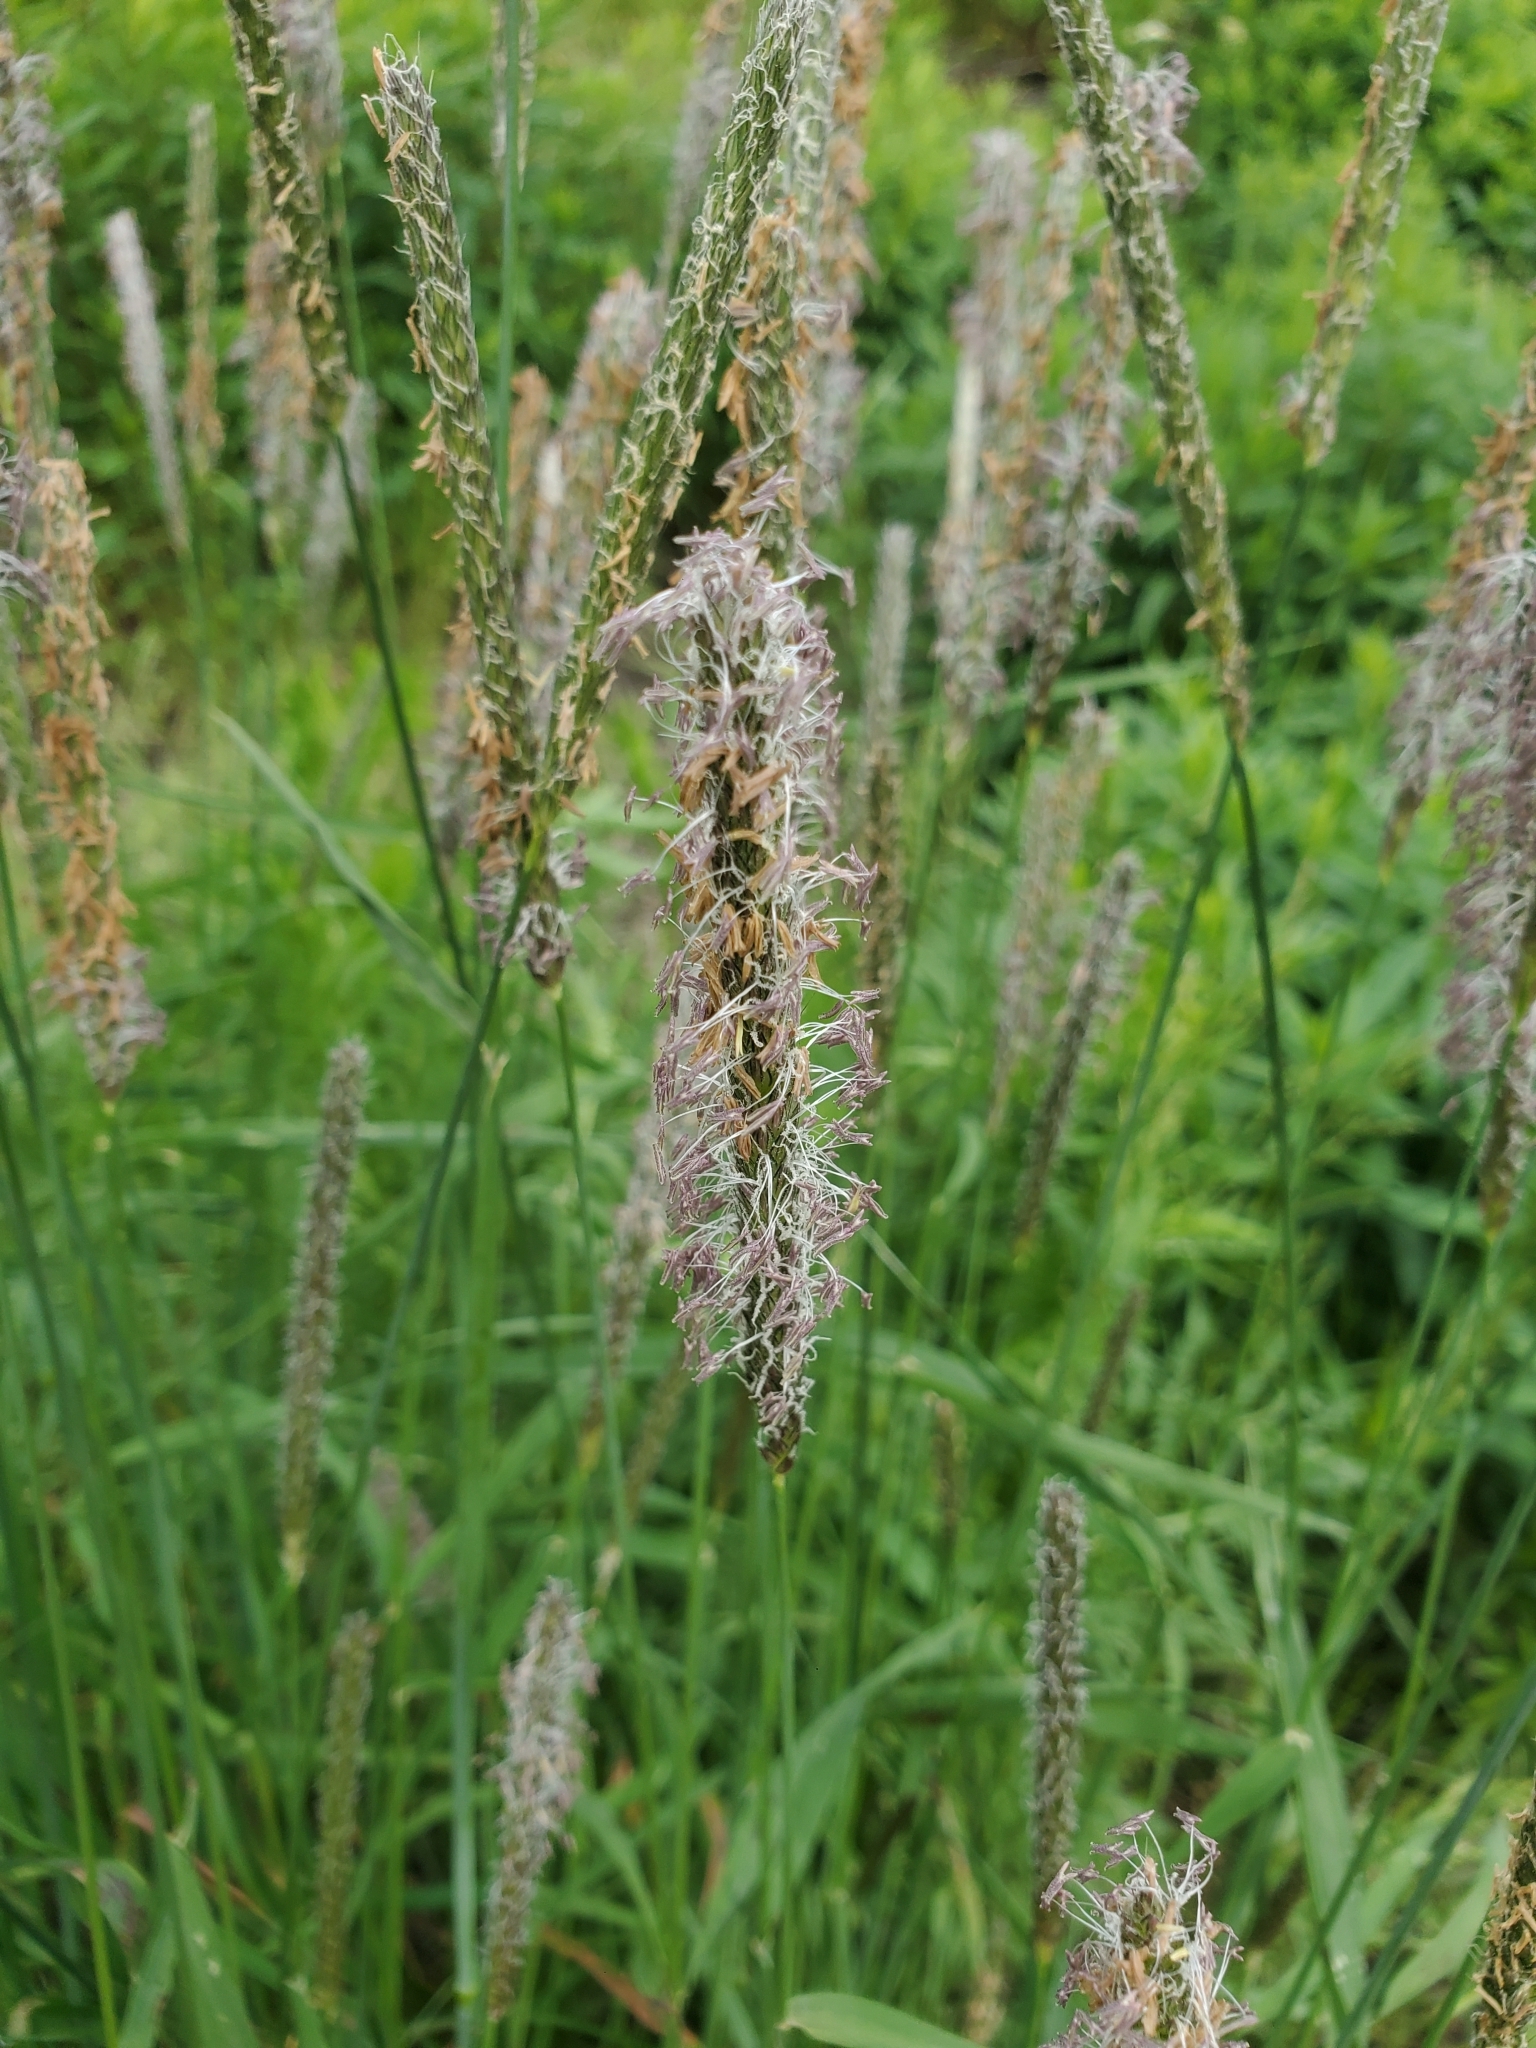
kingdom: Plantae
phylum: Tracheophyta
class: Liliopsida
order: Poales
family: Poaceae
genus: Phleum
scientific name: Phleum pratense
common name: Timothy grass
